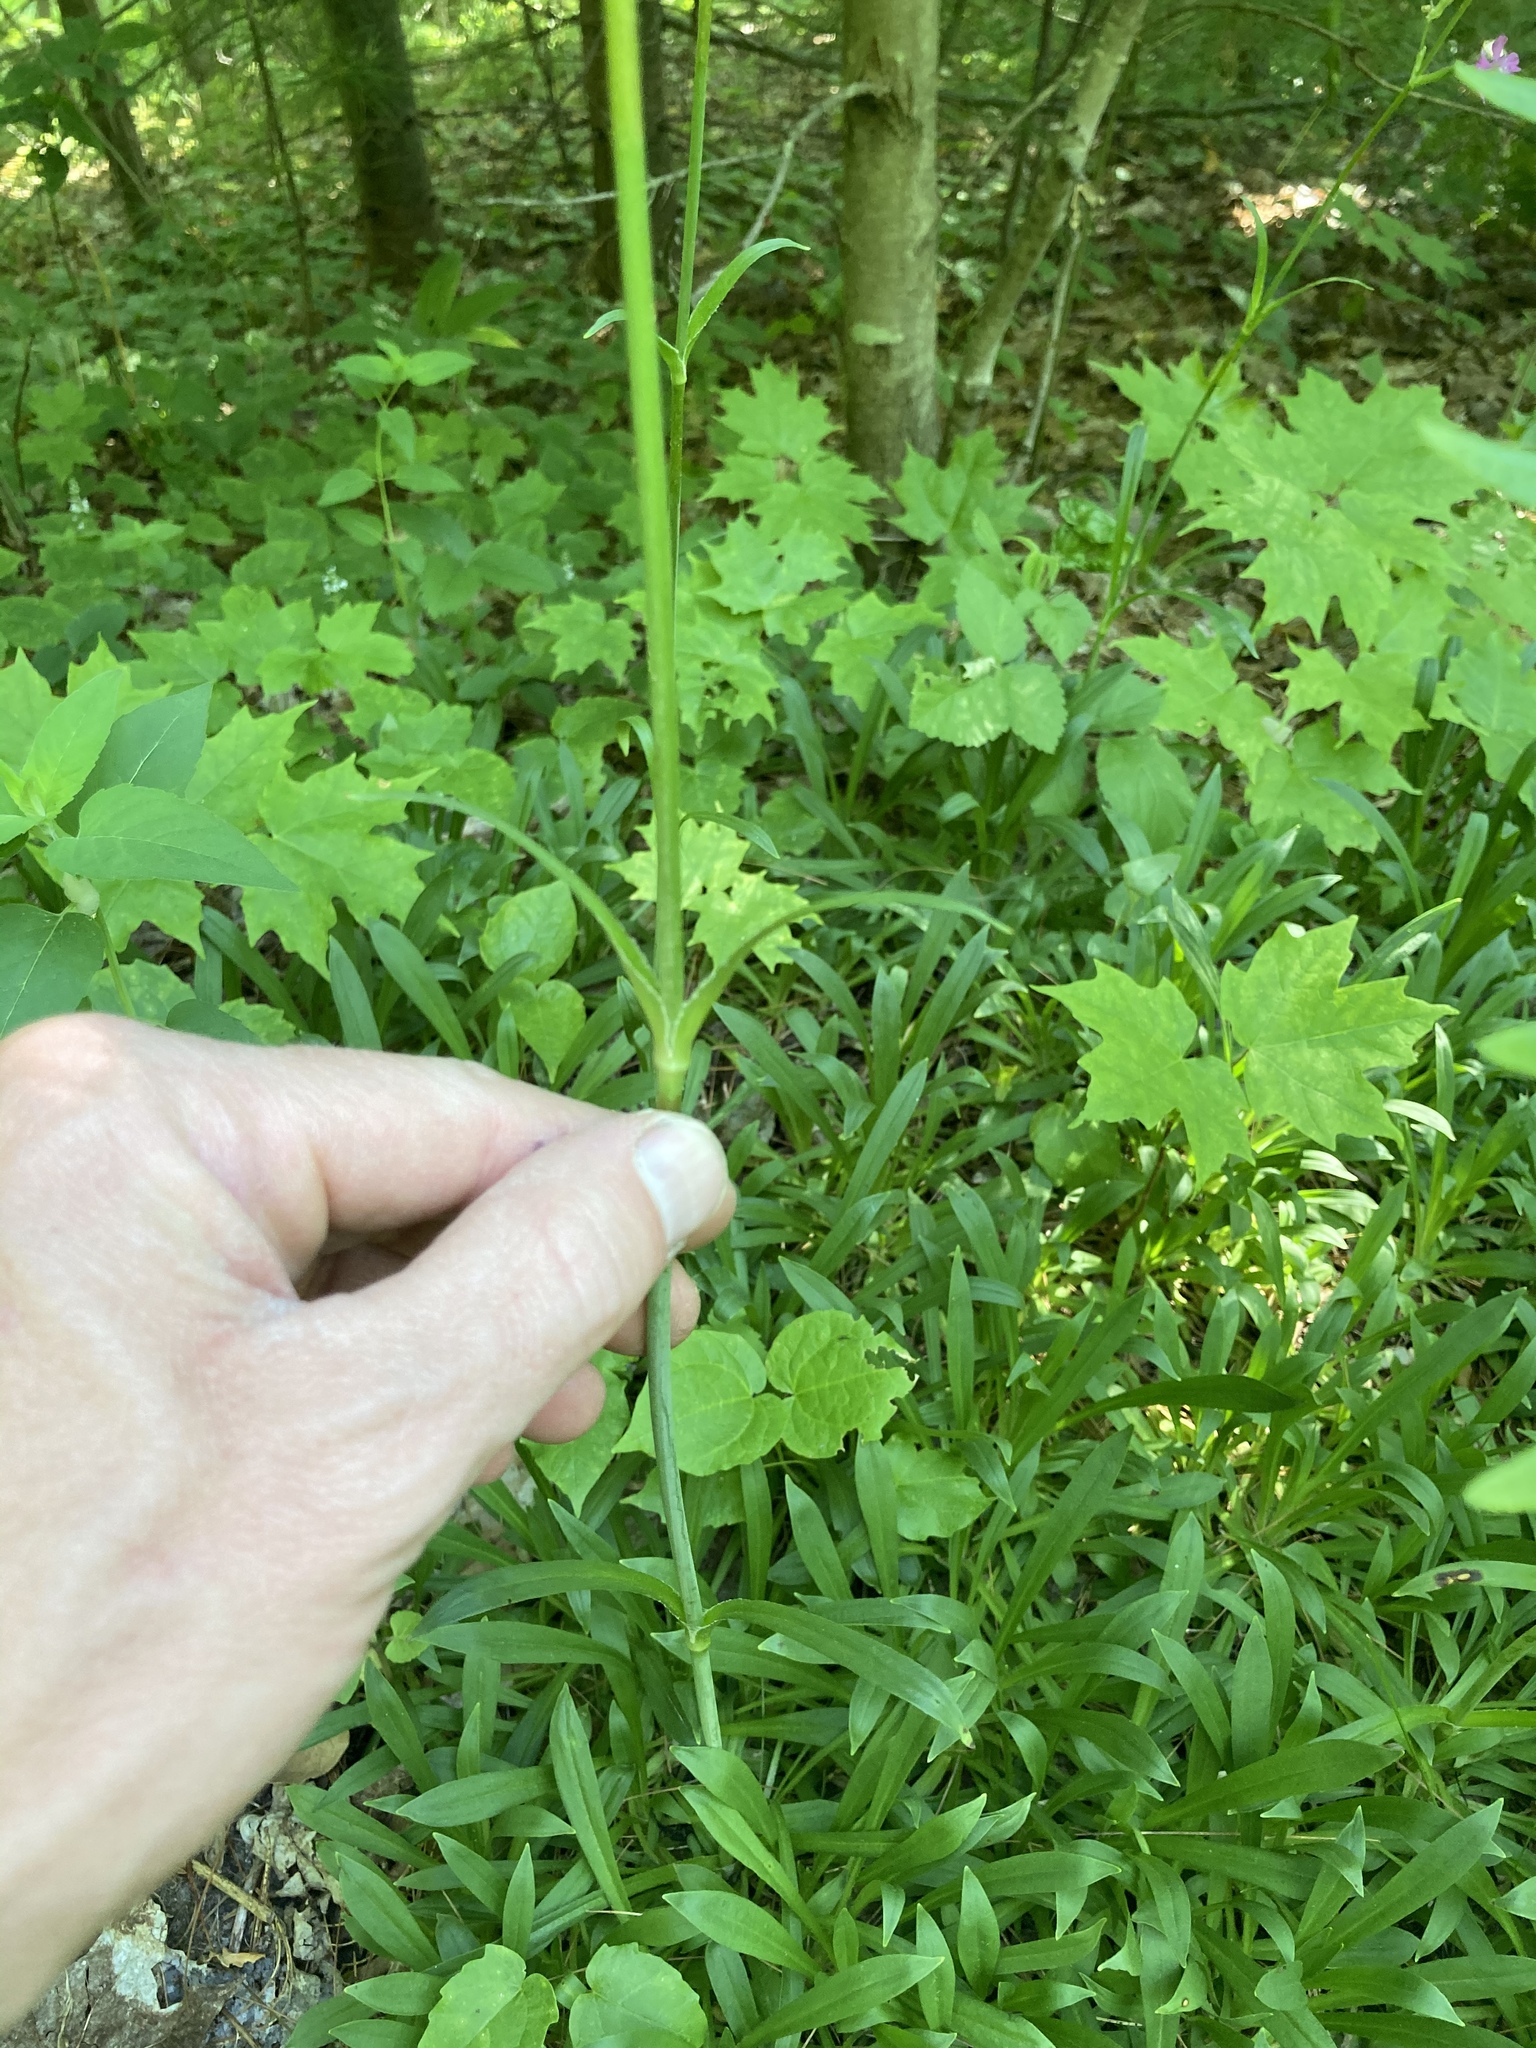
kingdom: Plantae
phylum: Tracheophyta
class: Magnoliopsida
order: Caryophyllales
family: Caryophyllaceae
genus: Viscaria
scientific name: Viscaria vulgaris
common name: Clammy campion
